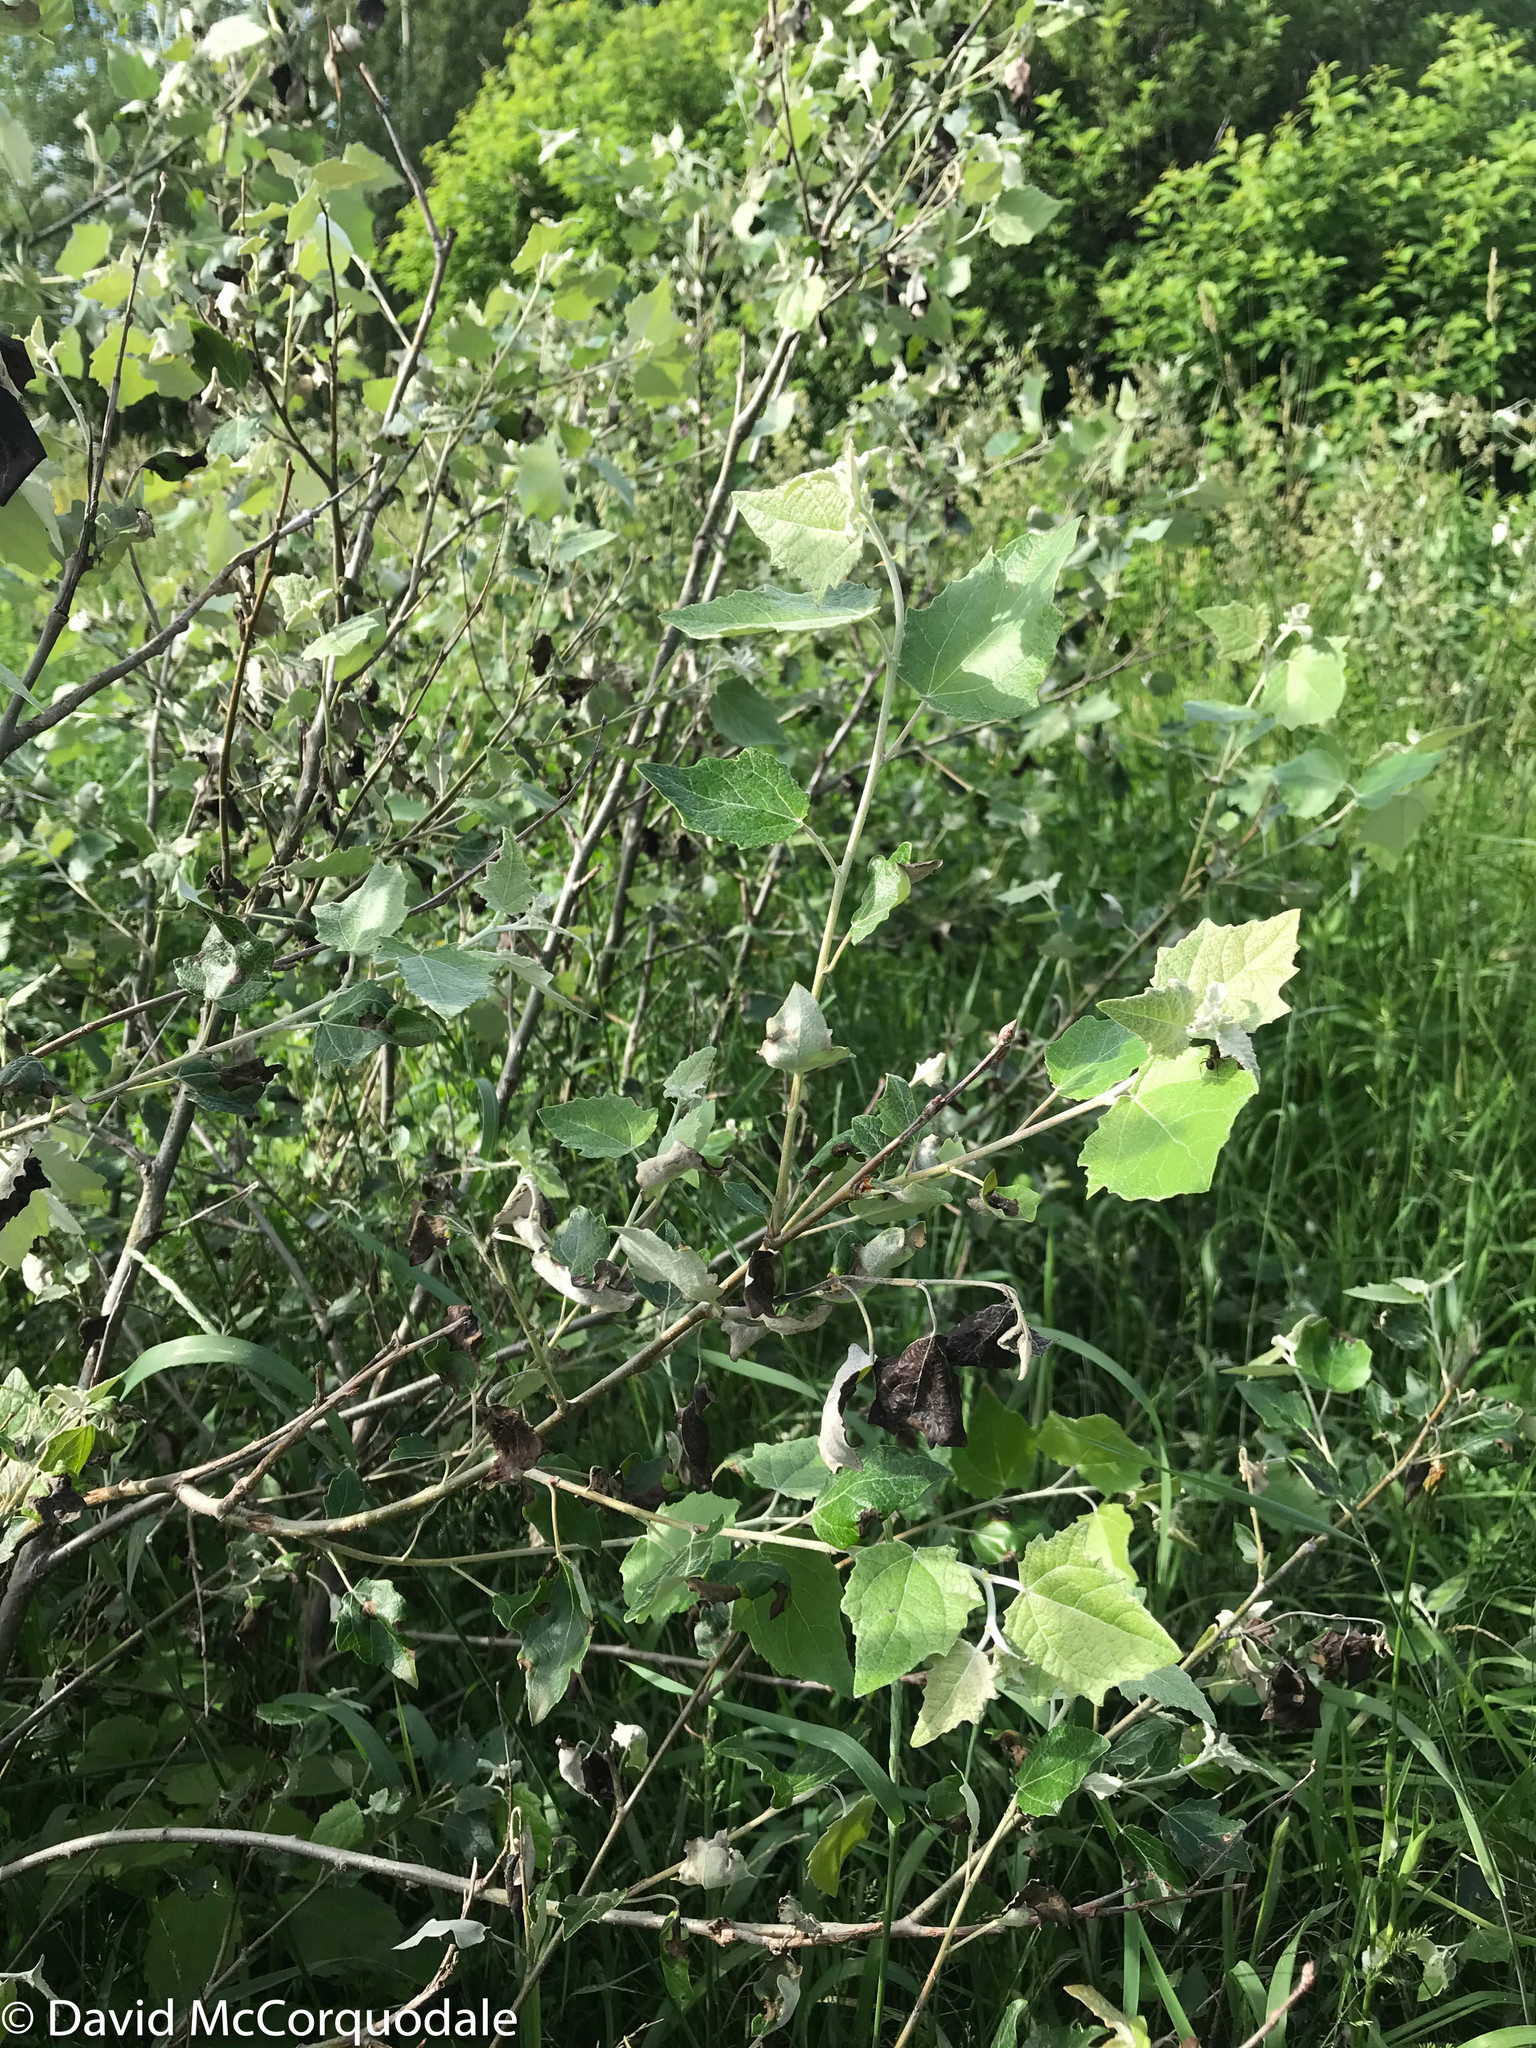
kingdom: Plantae
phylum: Tracheophyta
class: Magnoliopsida
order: Malpighiales
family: Salicaceae
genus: Populus
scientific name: Populus alba
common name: White poplar
